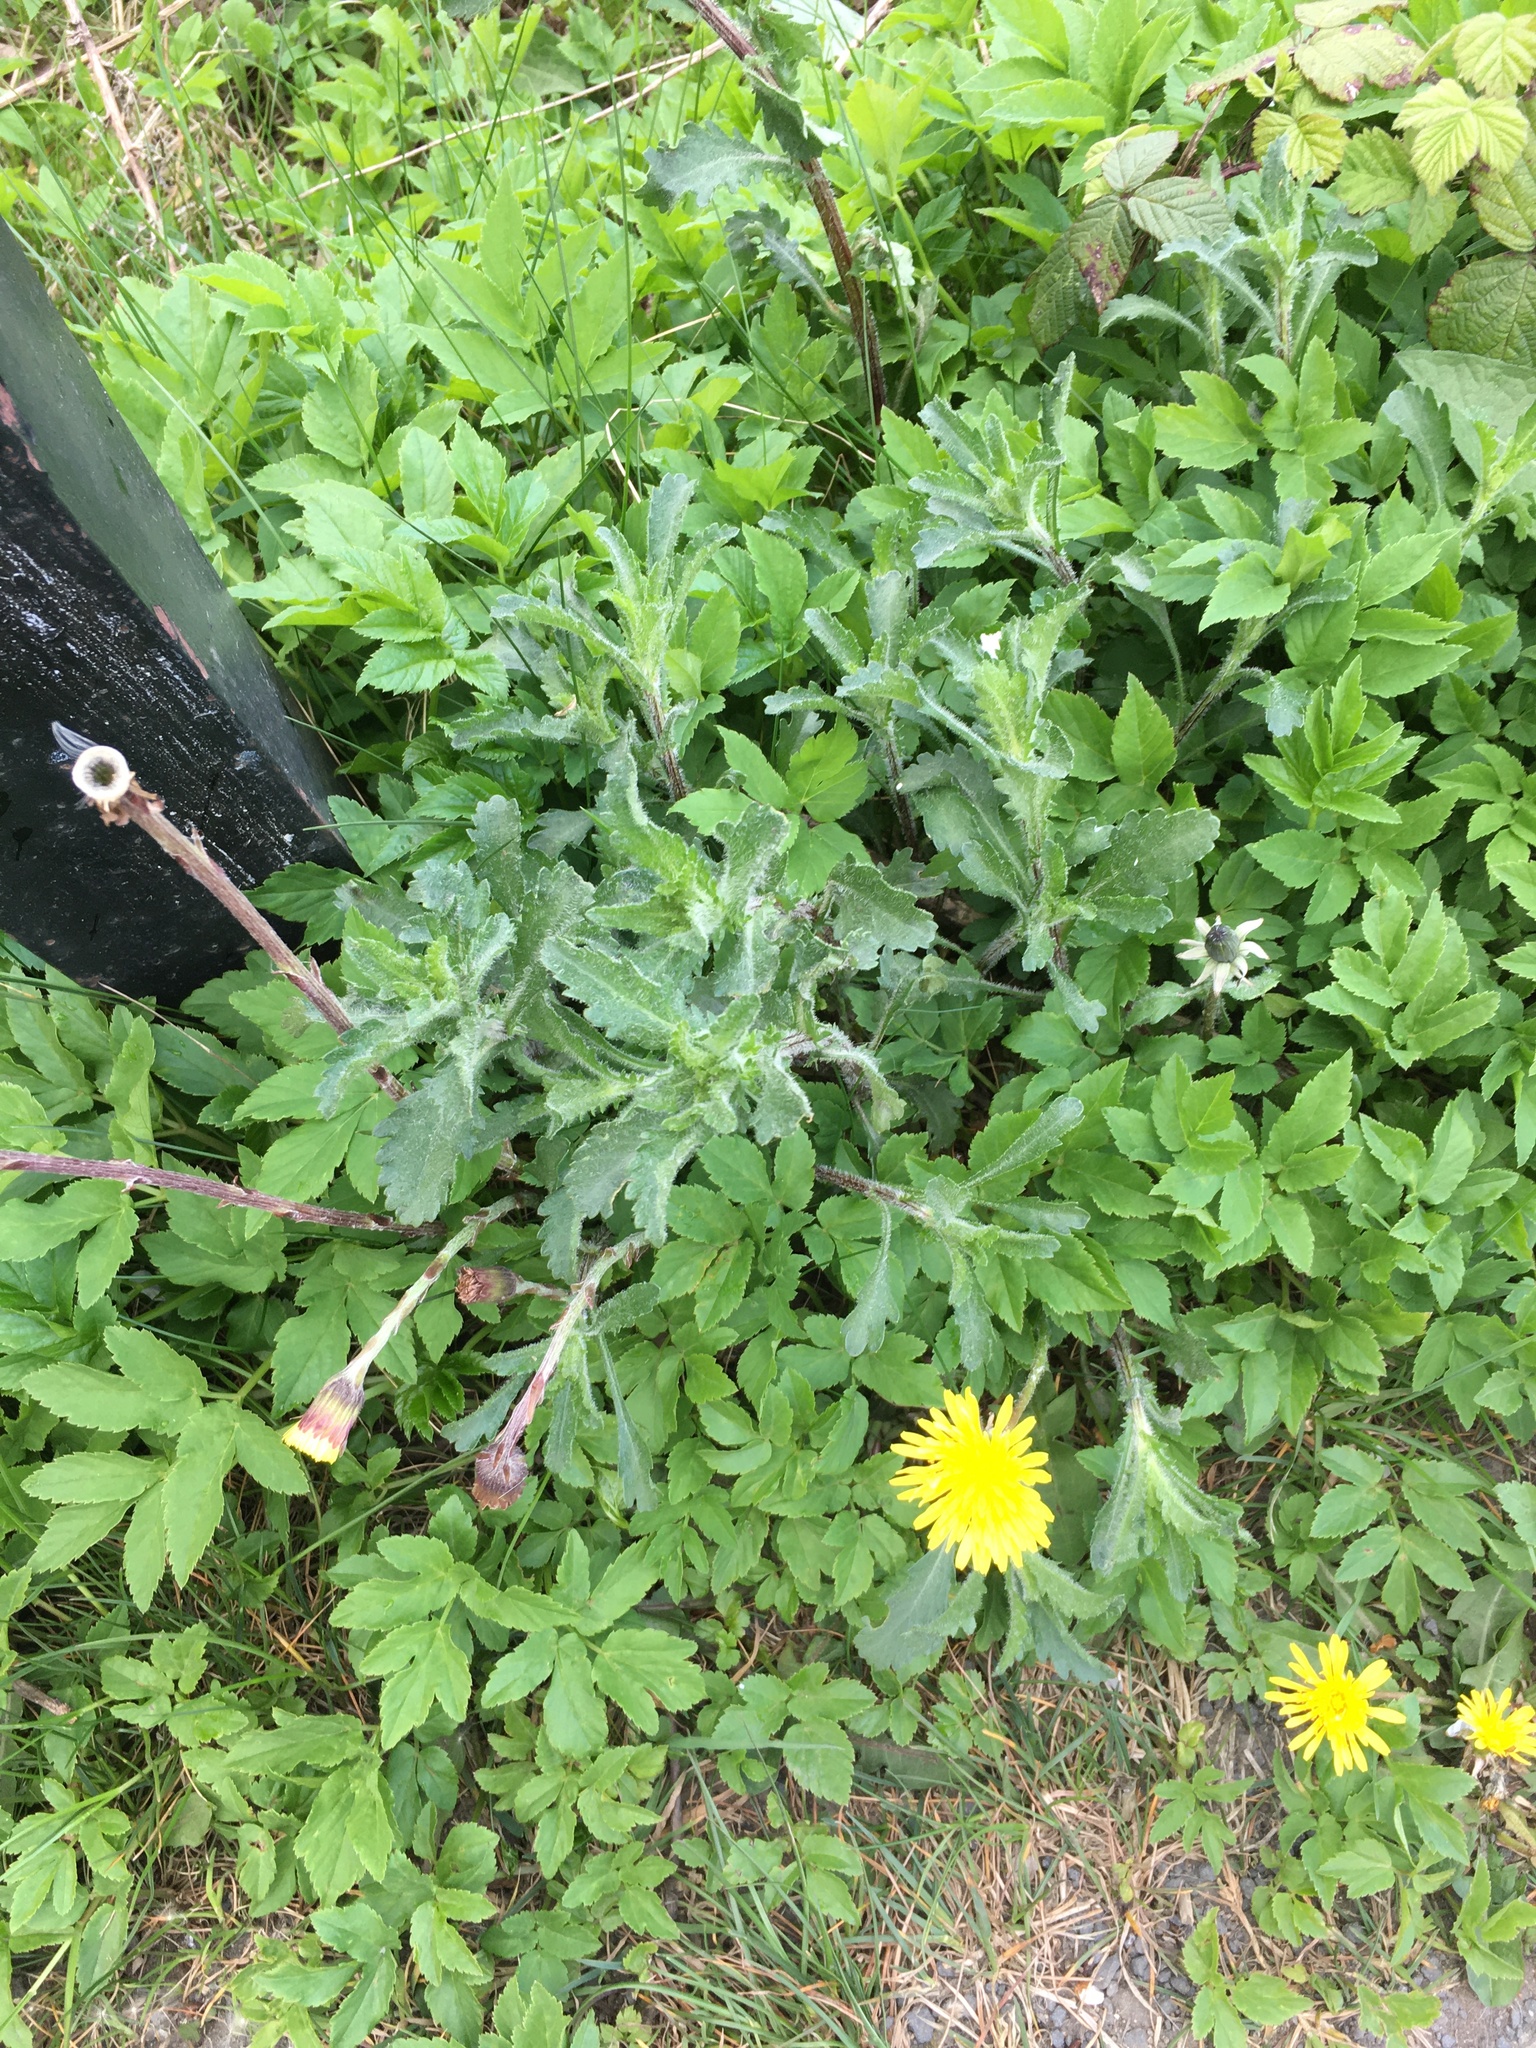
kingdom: Plantae
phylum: Tracheophyta
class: Magnoliopsida
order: Apiales
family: Apiaceae
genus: Aegopodium
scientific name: Aegopodium podagraria
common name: Ground-elder
